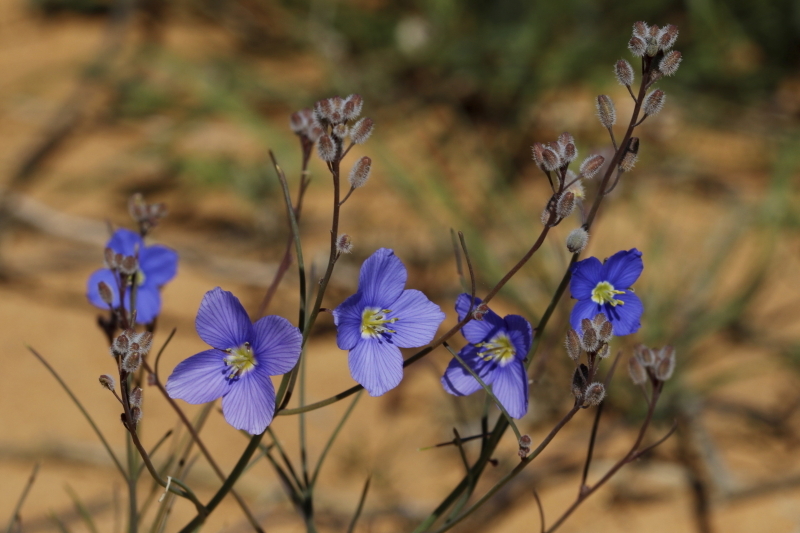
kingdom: Plantae
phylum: Tracheophyta
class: Magnoliopsida
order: Brassicales
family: Brassicaceae
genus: Heliophila
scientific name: Heliophila arenaria
